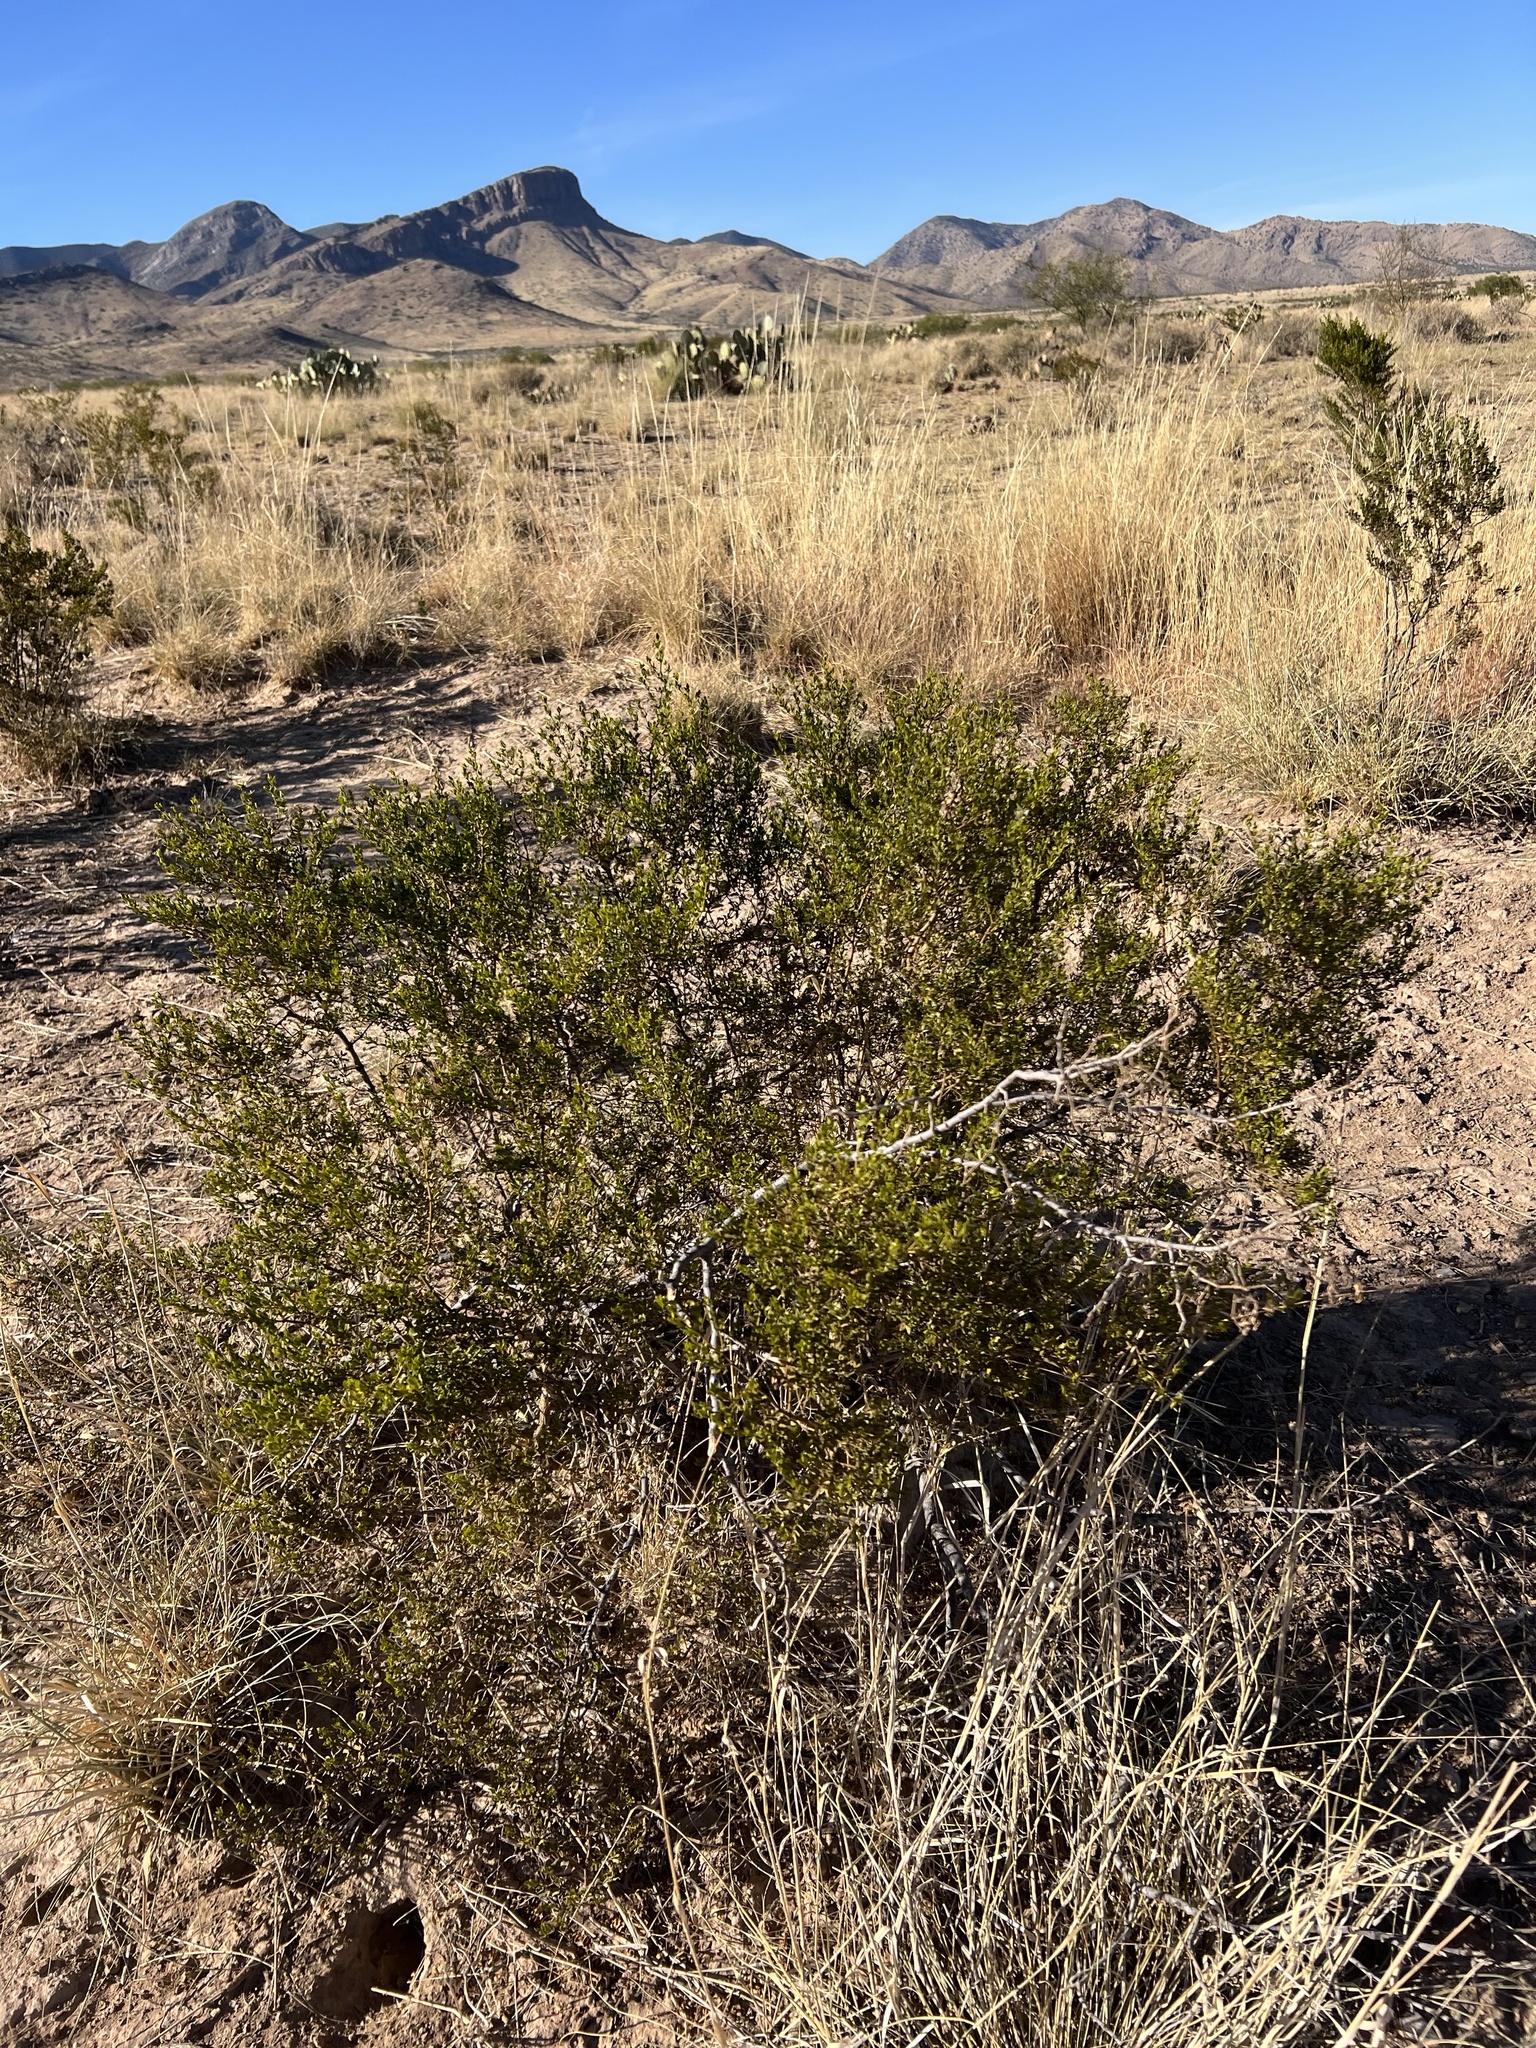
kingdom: Plantae
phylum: Tracheophyta
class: Magnoliopsida
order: Zygophyllales
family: Zygophyllaceae
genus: Larrea
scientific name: Larrea tridentata
